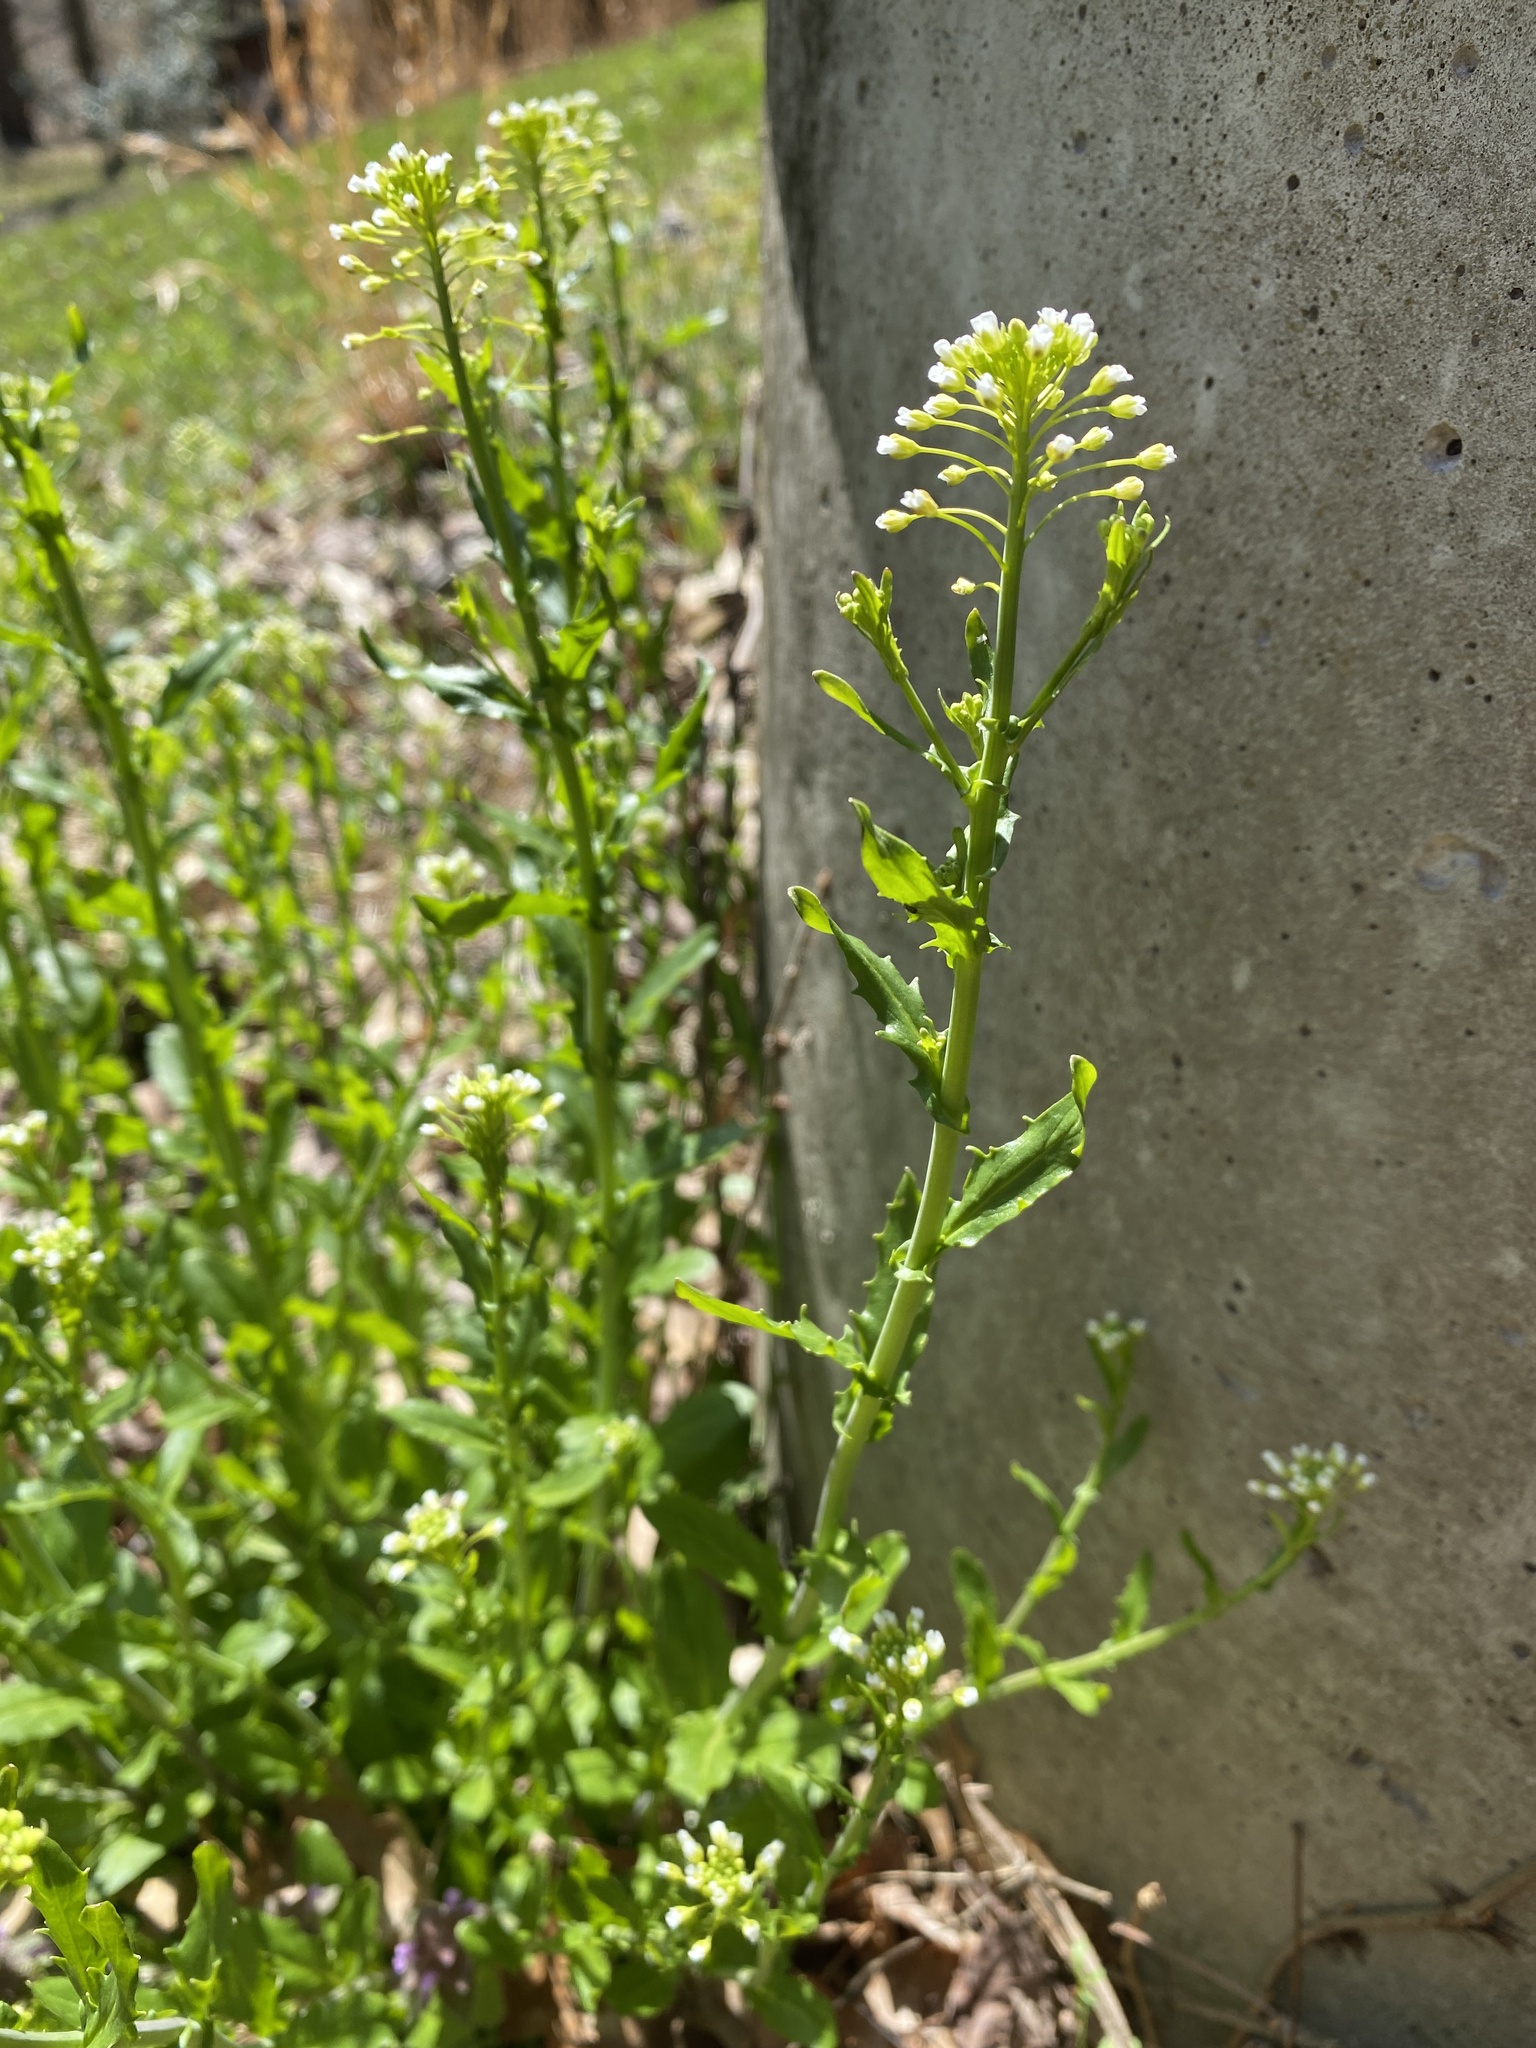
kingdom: Plantae
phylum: Tracheophyta
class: Magnoliopsida
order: Brassicales
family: Brassicaceae
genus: Mummenhoffia
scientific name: Mummenhoffia alliacea
